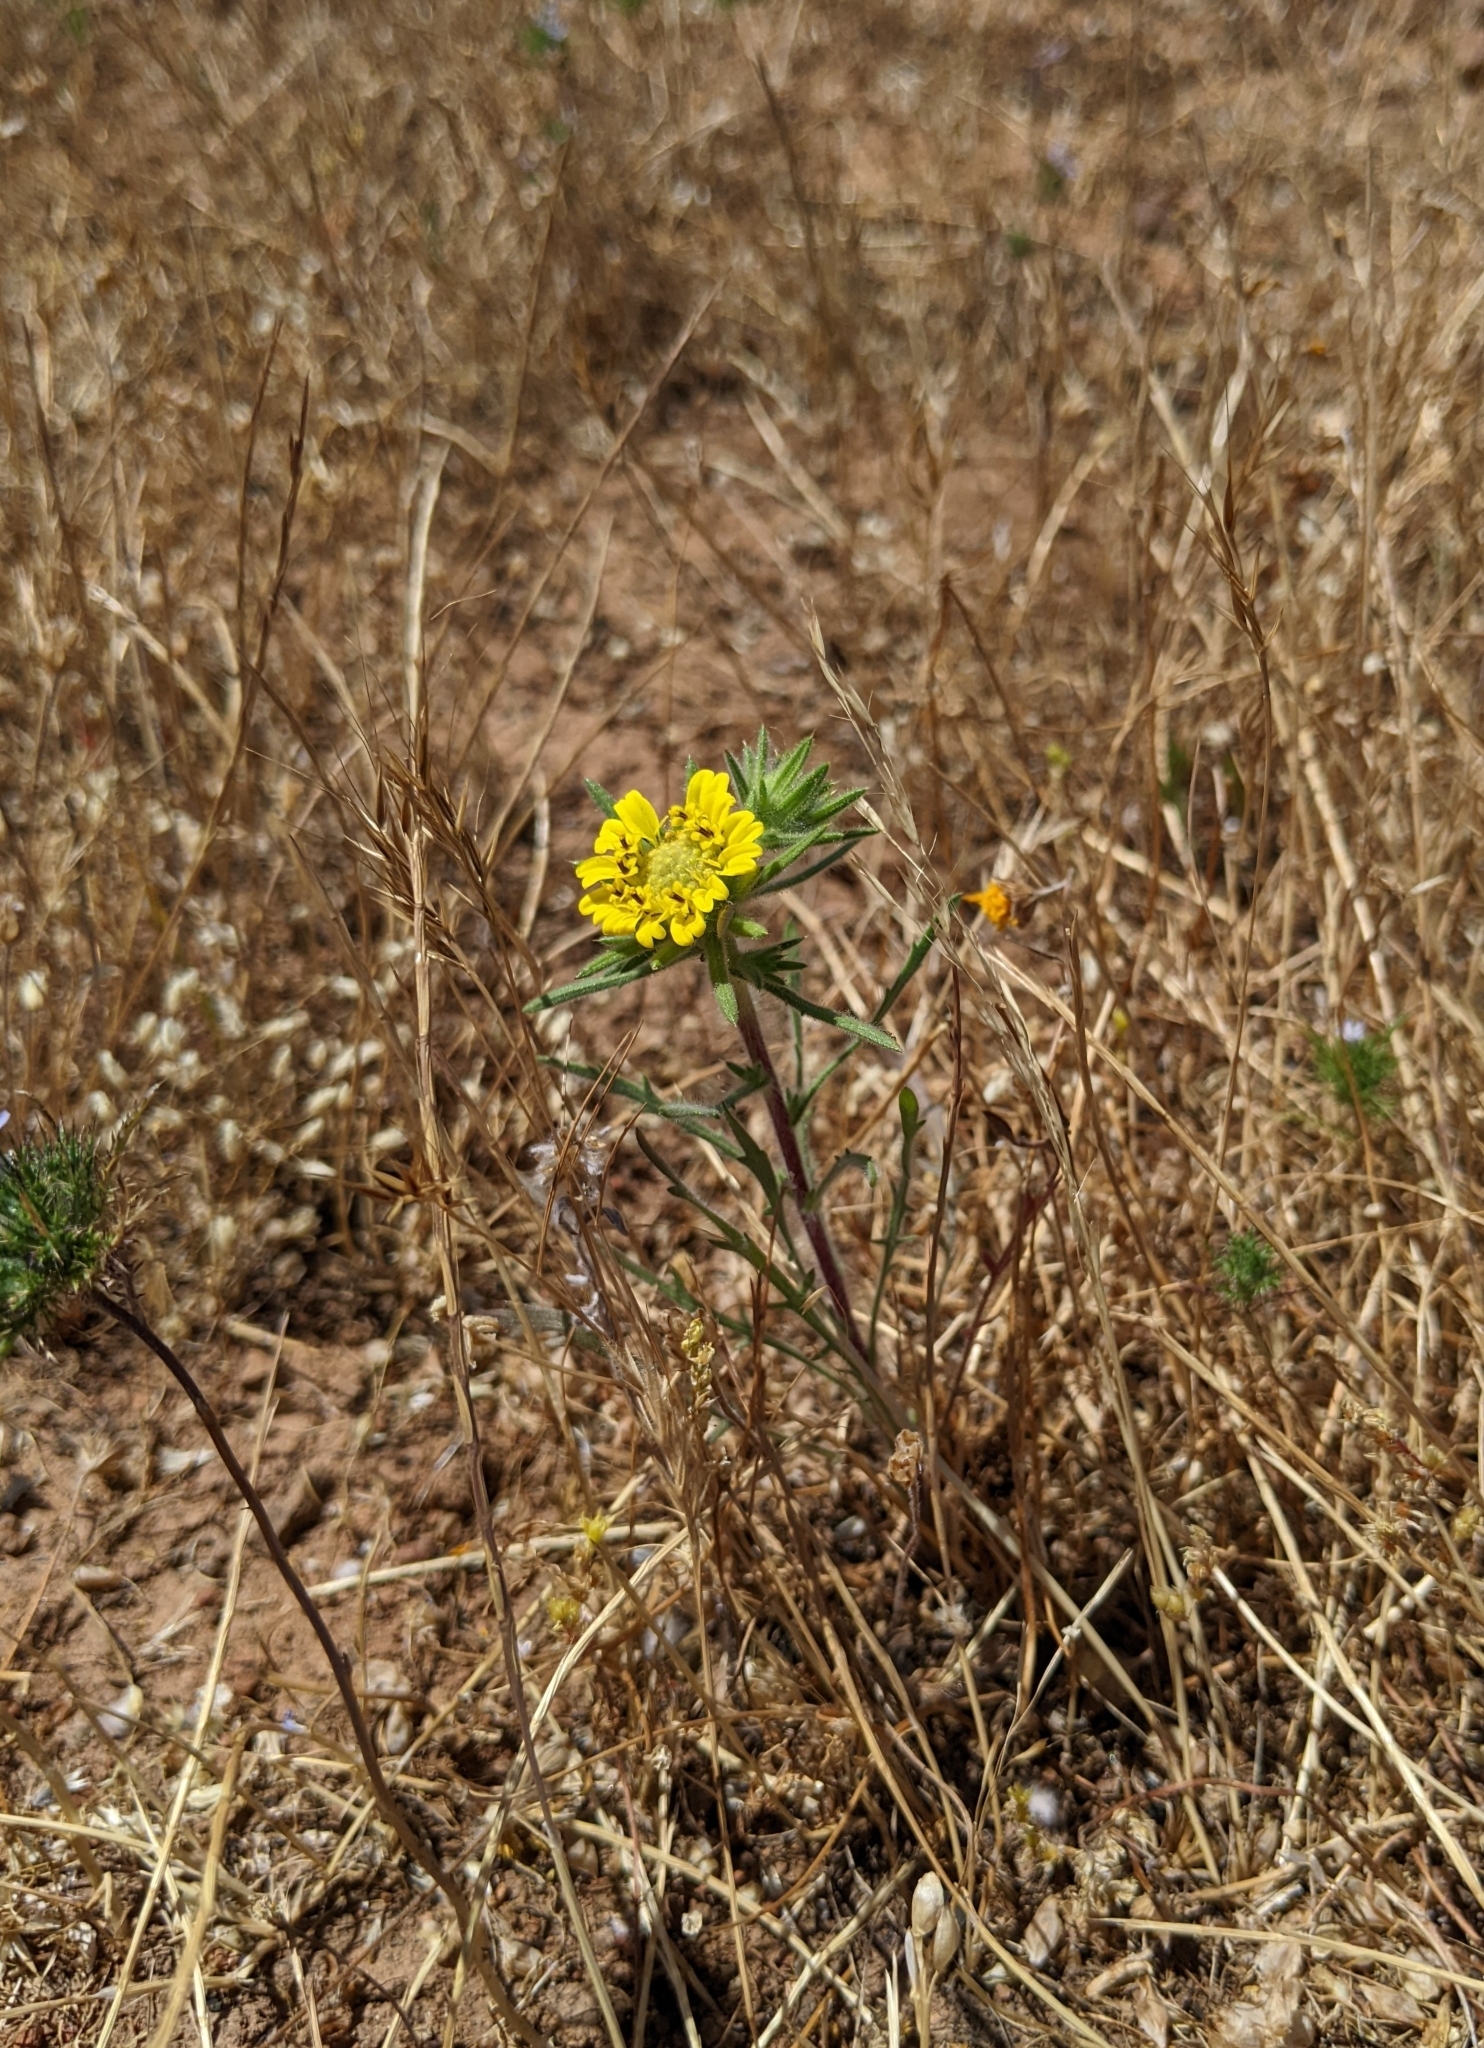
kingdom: Plantae
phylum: Tracheophyta
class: Magnoliopsida
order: Asterales
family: Asteraceae
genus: Centromadia
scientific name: Centromadia fitchii
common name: Fitch's spikeweed
